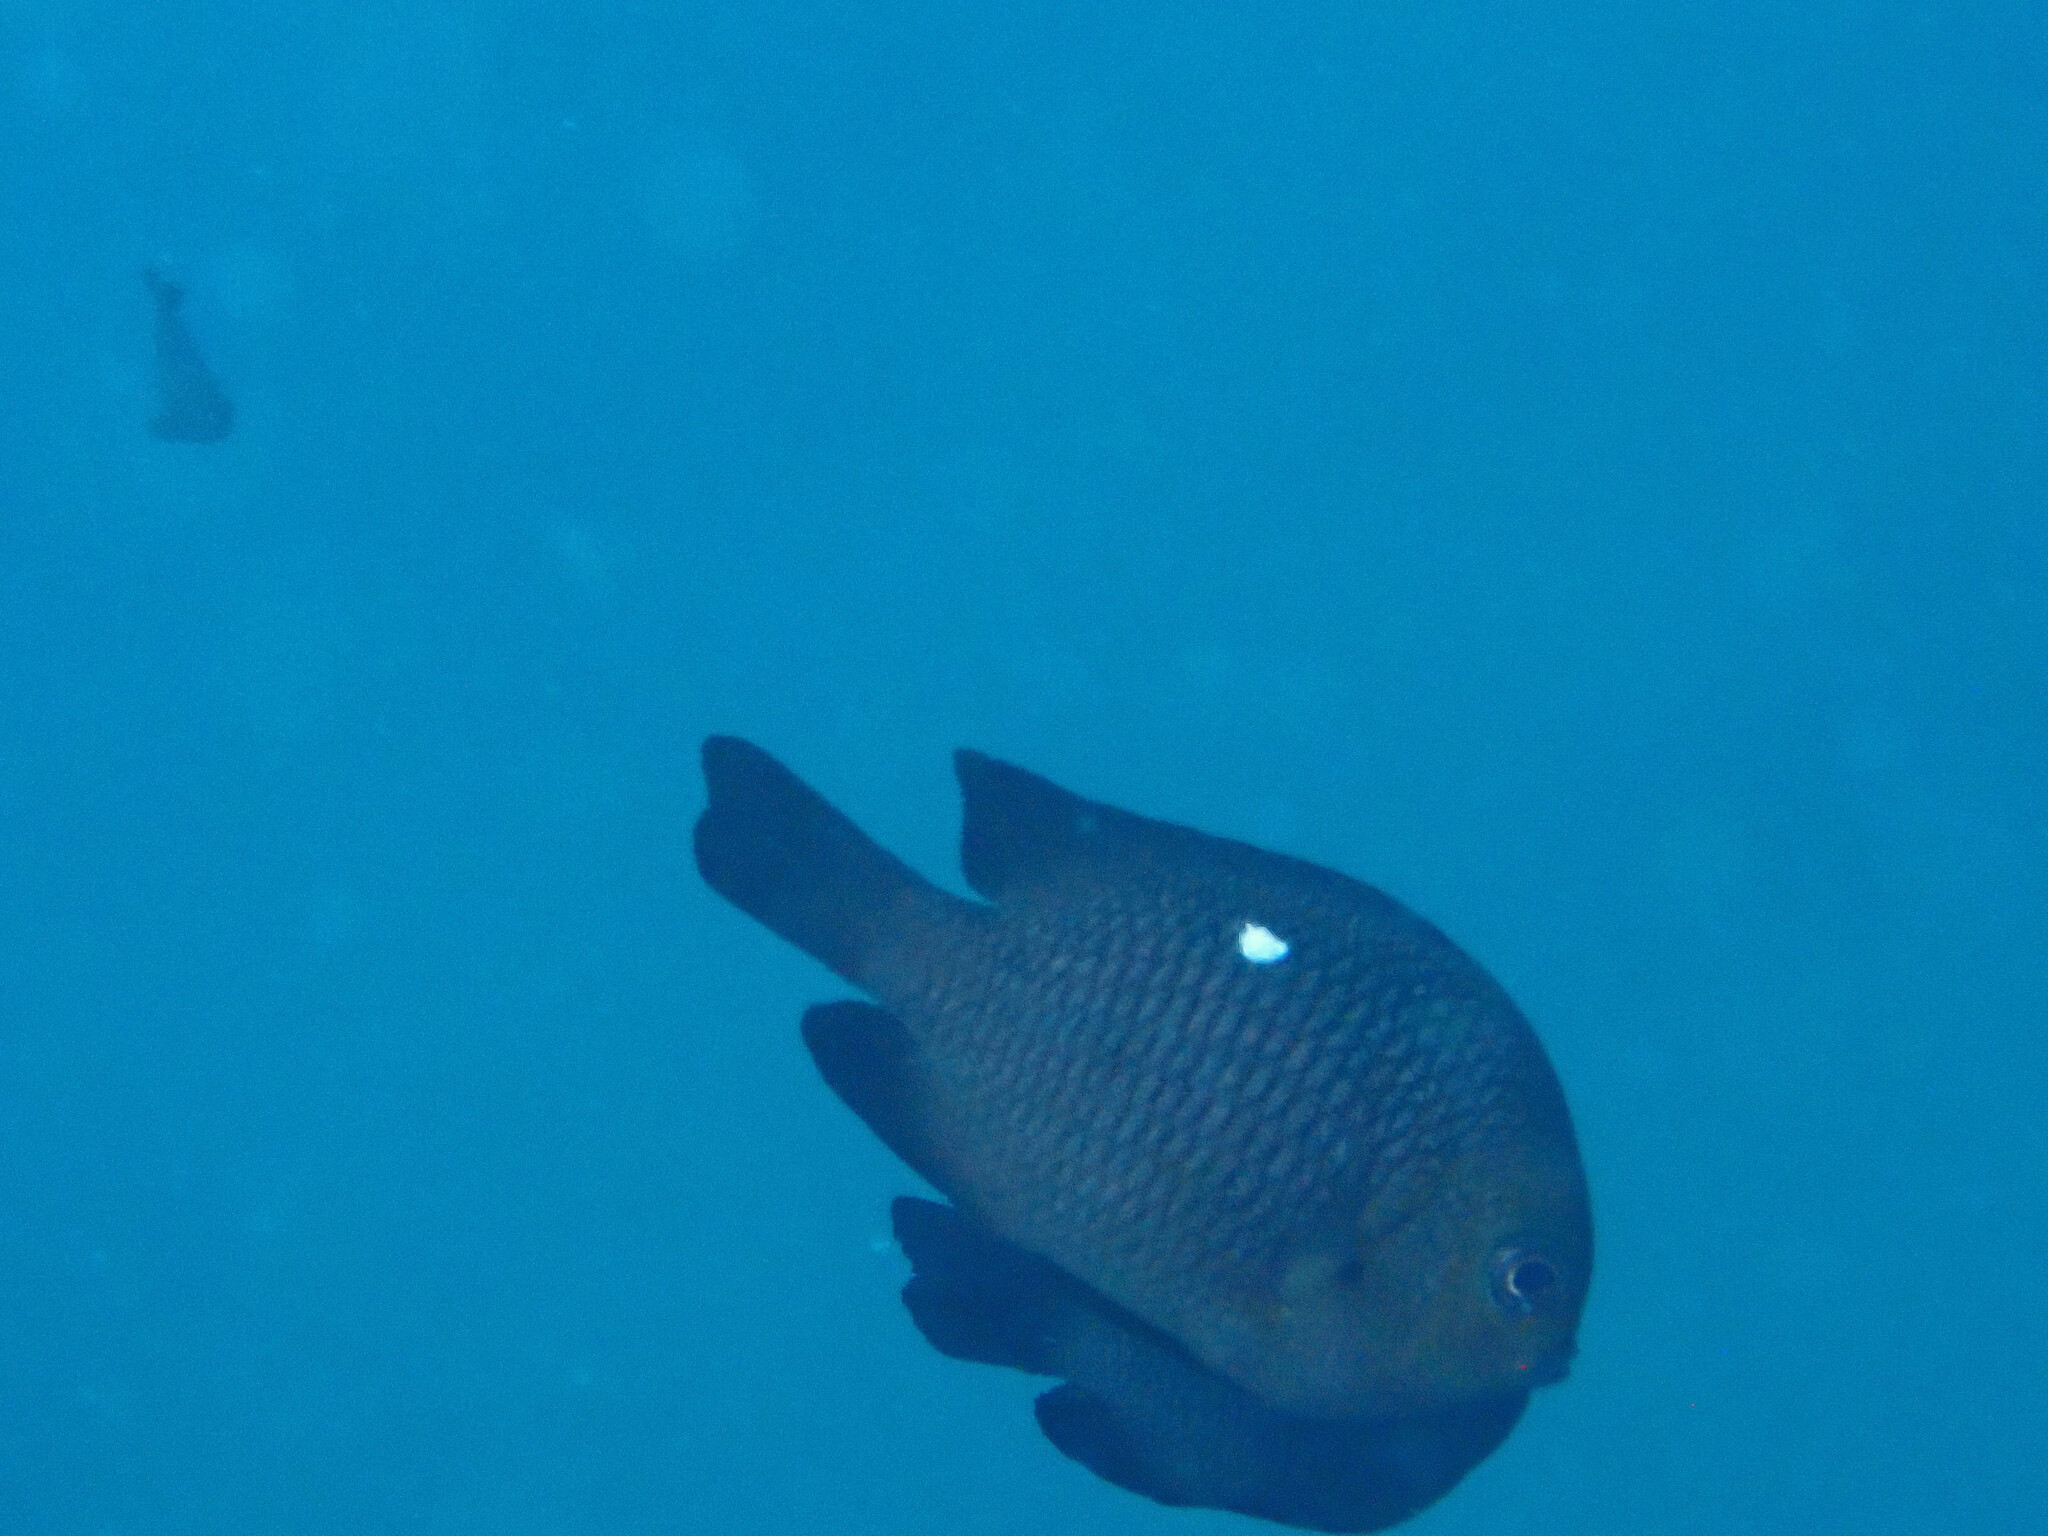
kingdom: Animalia
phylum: Chordata
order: Perciformes
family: Pomacentridae
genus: Dascyllus
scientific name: Dascyllus trimaculatus
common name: Threespot dascyllus
